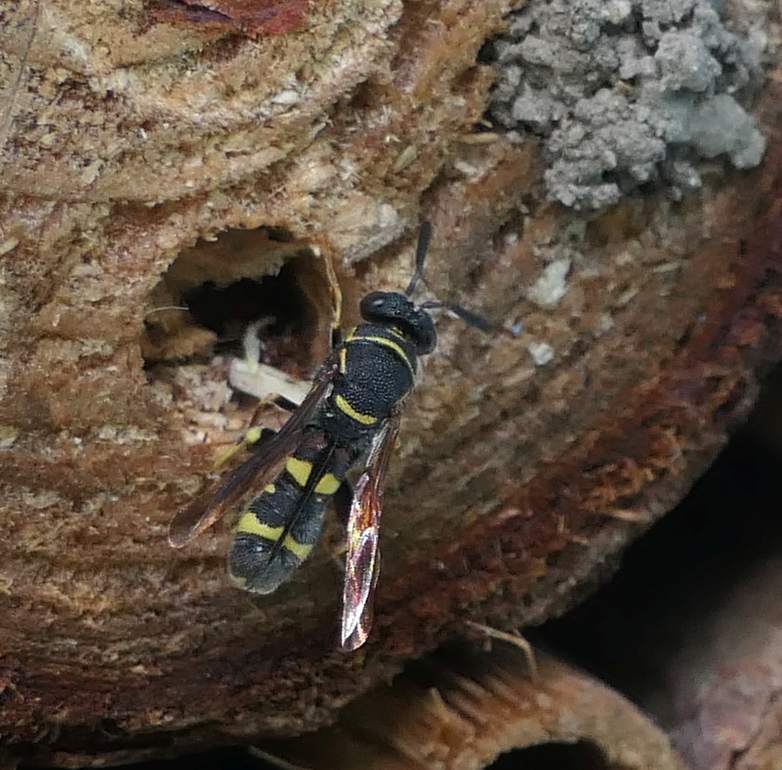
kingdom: Animalia
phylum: Arthropoda
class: Insecta
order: Hymenoptera
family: Leucospidae
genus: Leucospis
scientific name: Leucospis affinis
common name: Wasp
